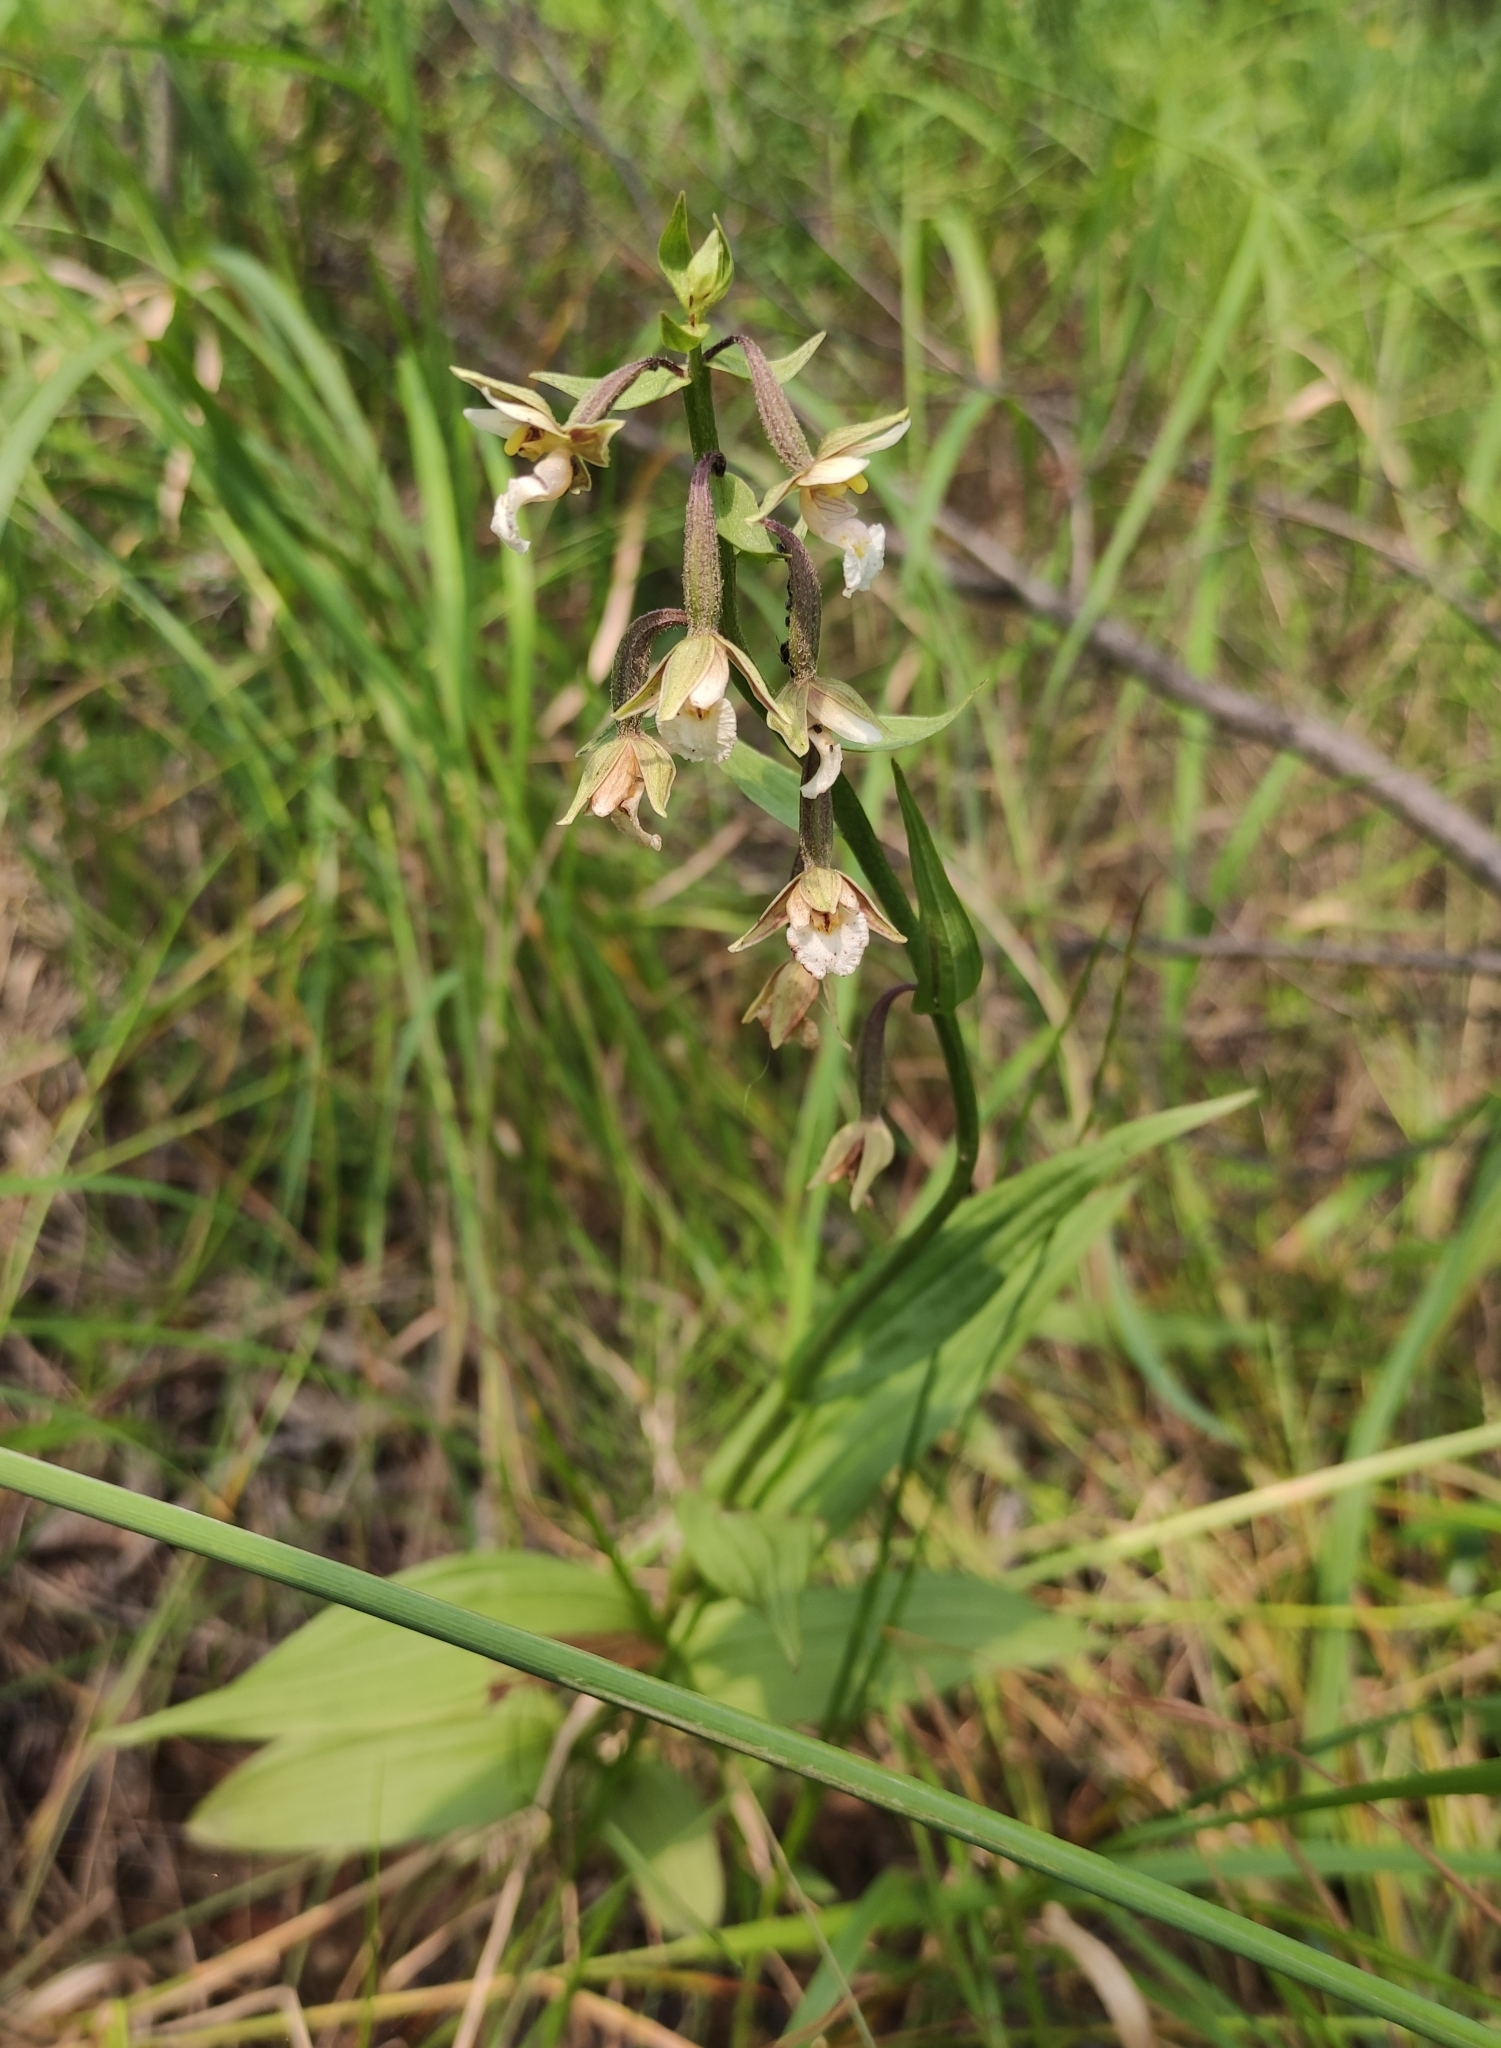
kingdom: Plantae
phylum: Tracheophyta
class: Liliopsida
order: Asparagales
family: Orchidaceae
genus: Epipactis
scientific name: Epipactis palustris
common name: Marsh helleborine
